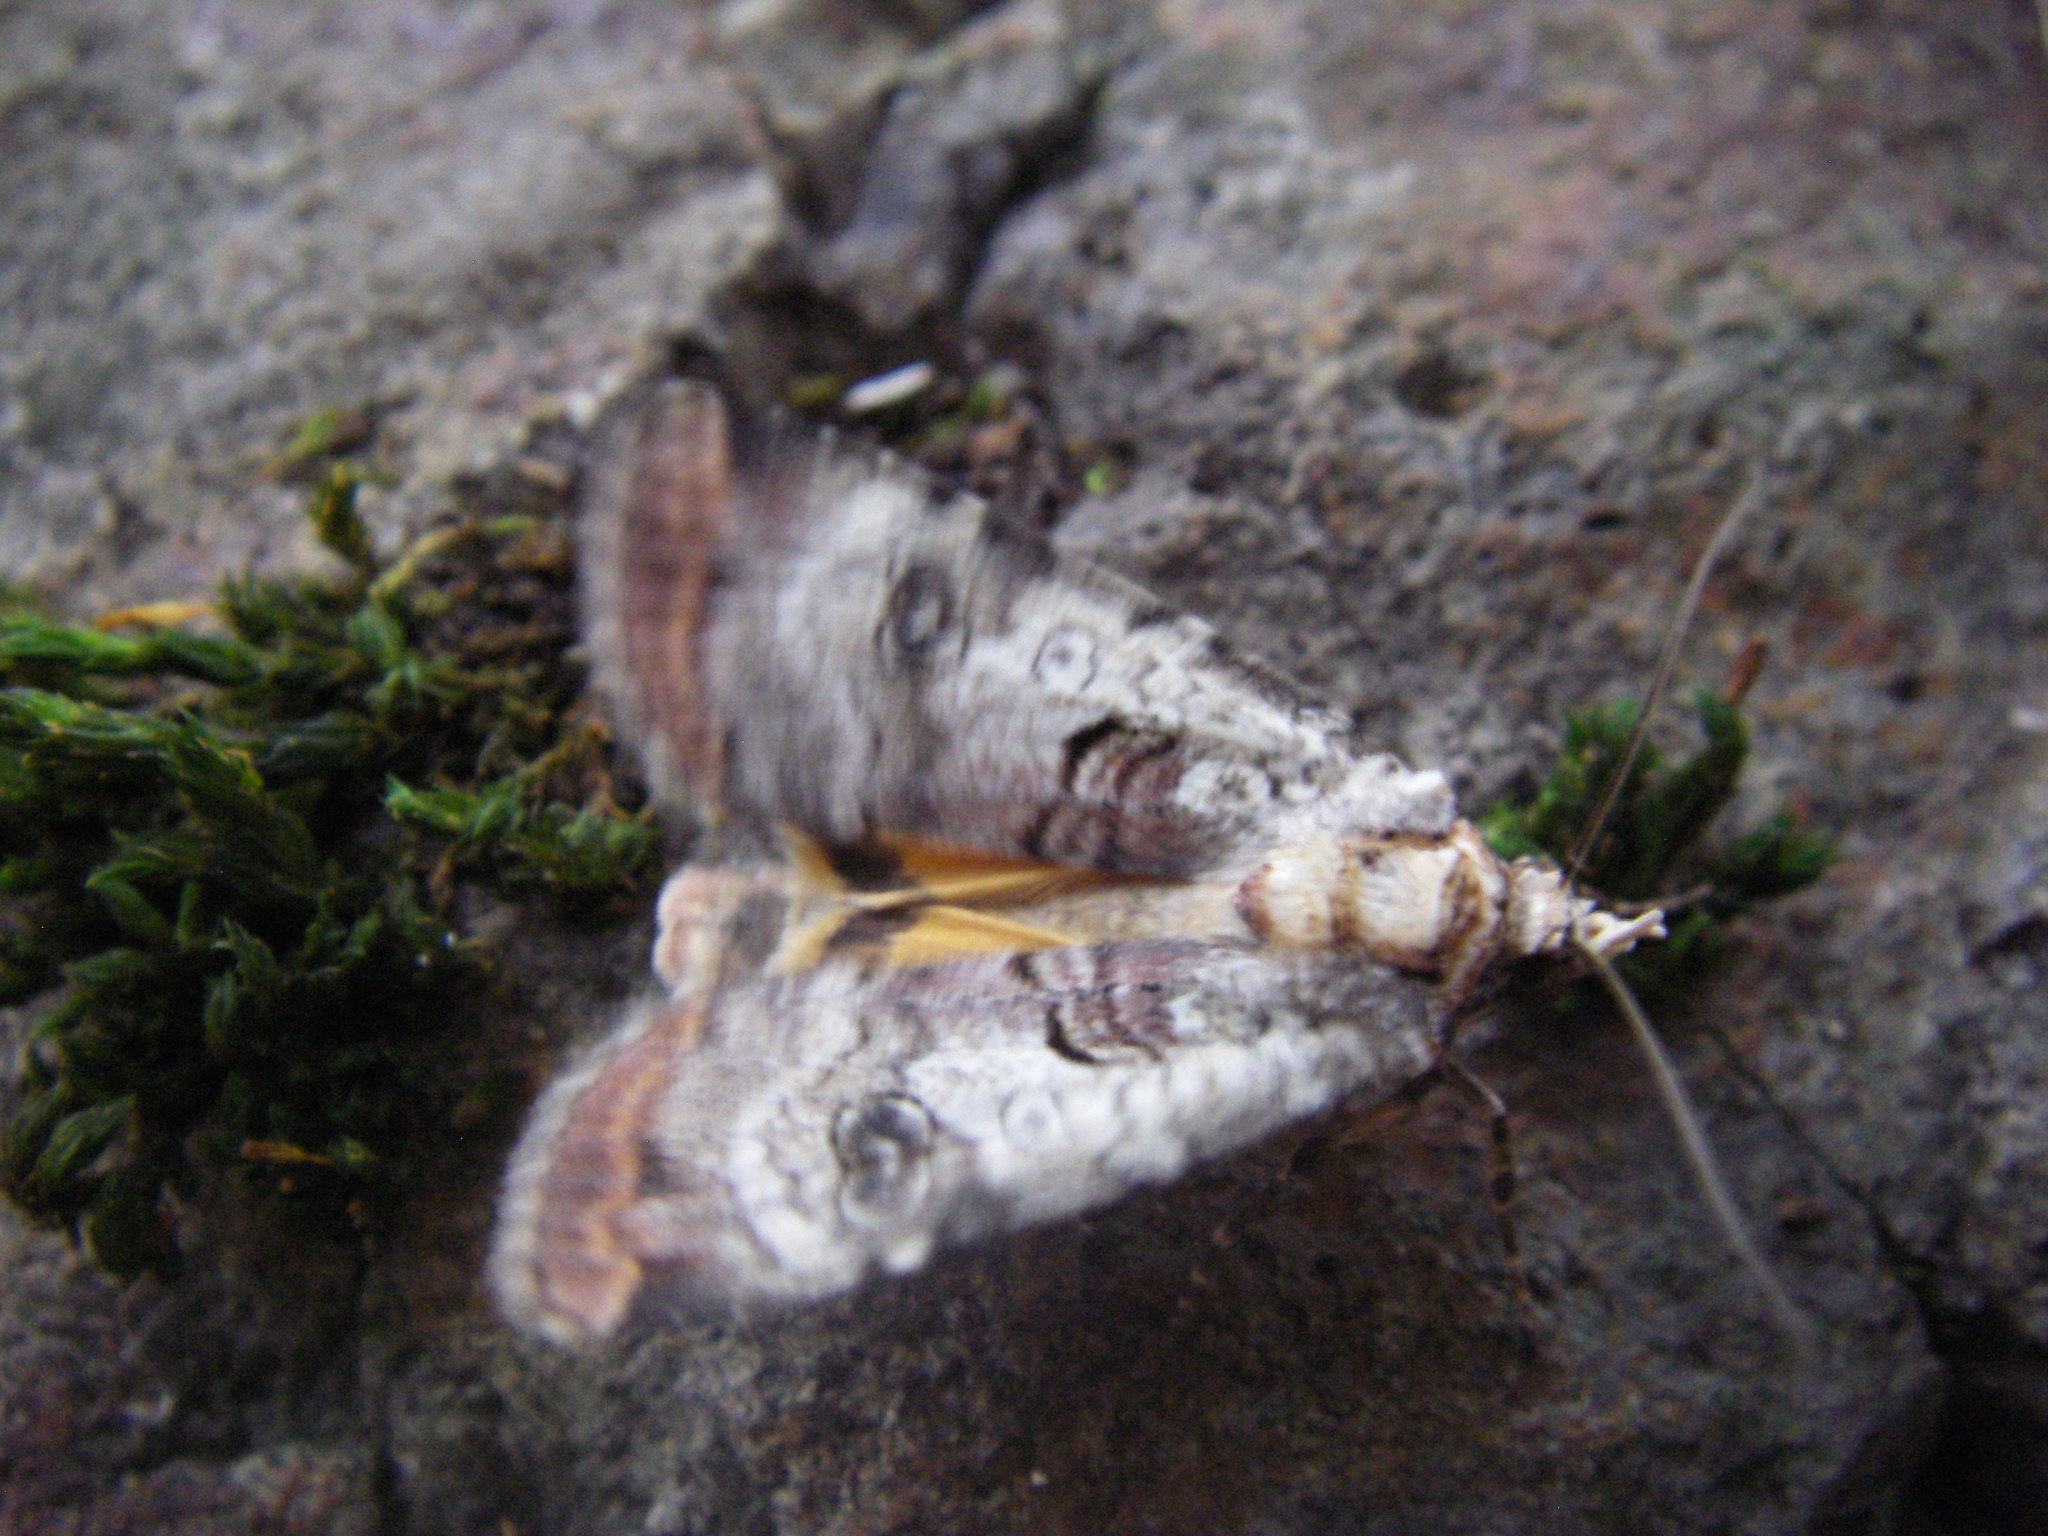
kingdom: Animalia
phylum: Arthropoda
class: Insecta
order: Lepidoptera
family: Noctuidae
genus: Epilecta
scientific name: Epilecta linogrisea
